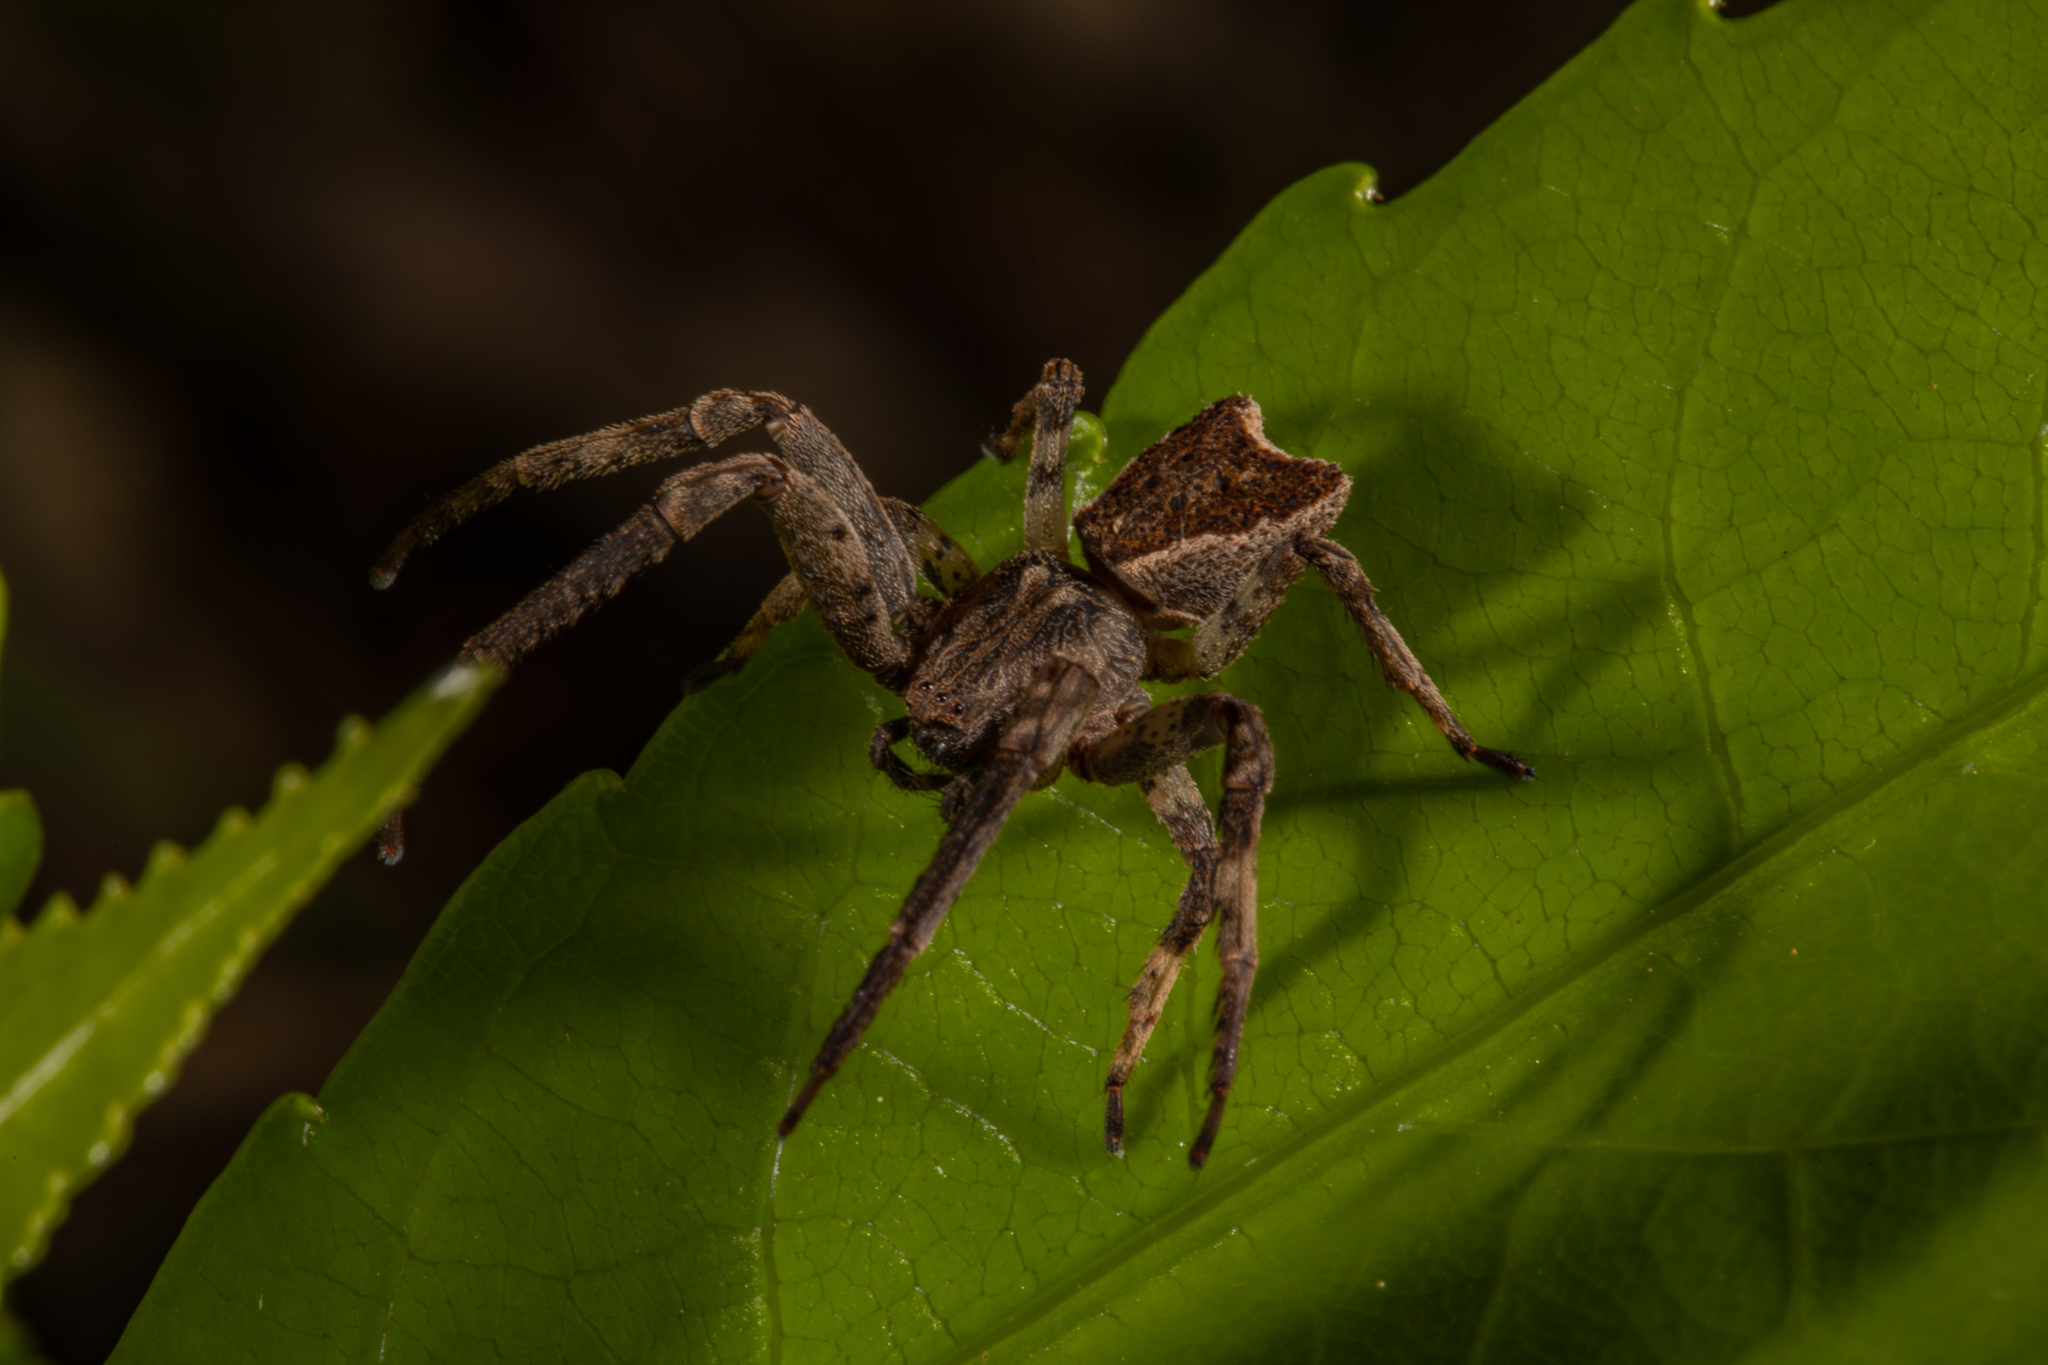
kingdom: Animalia
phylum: Arthropoda
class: Arachnida
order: Araneae
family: Thomisidae
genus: Sidymella
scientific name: Sidymella angularis
